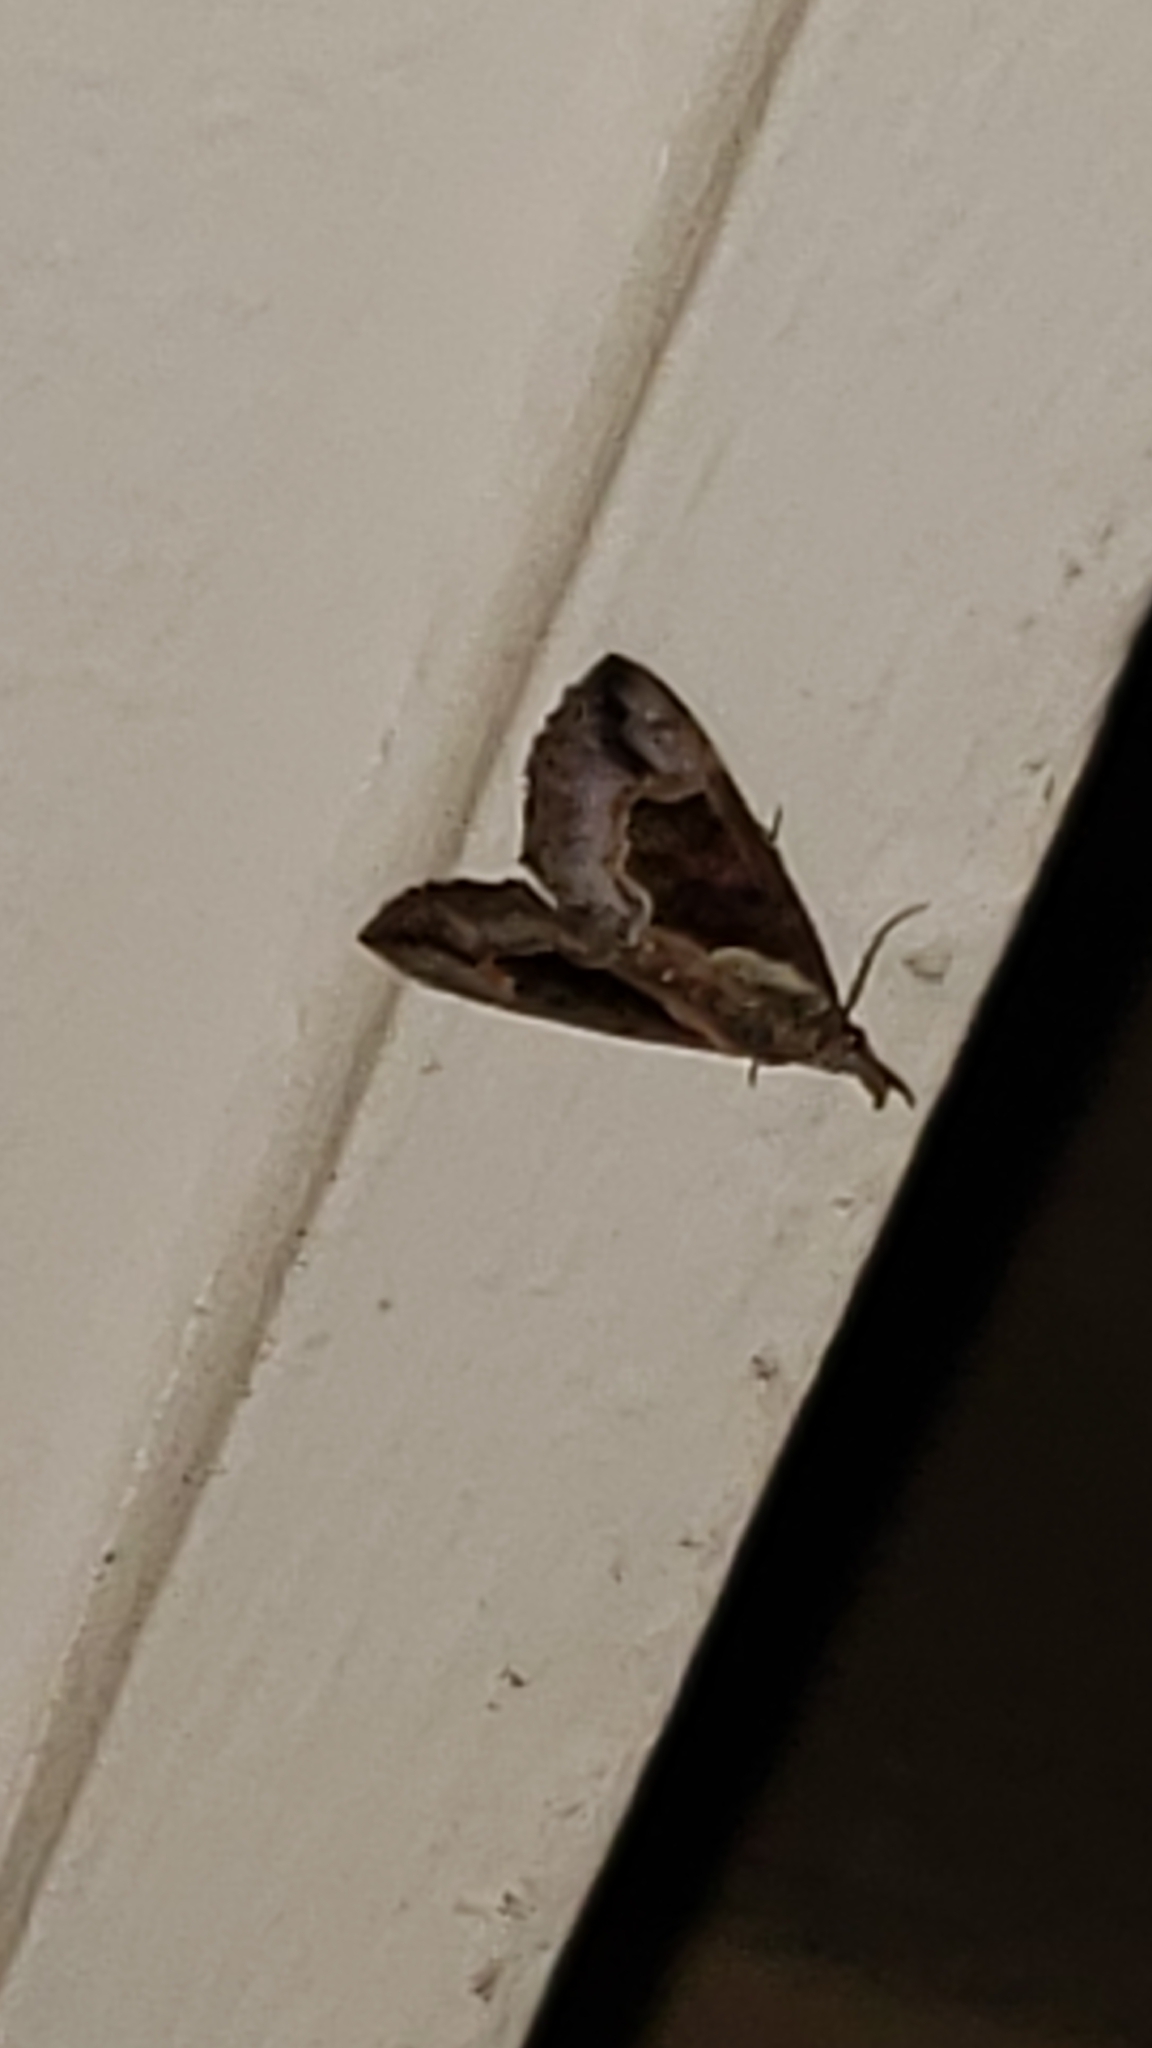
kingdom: Animalia
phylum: Arthropoda
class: Insecta
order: Lepidoptera
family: Erebidae
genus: Hypena
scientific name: Hypena baltimoralis
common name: Baltimore snout
